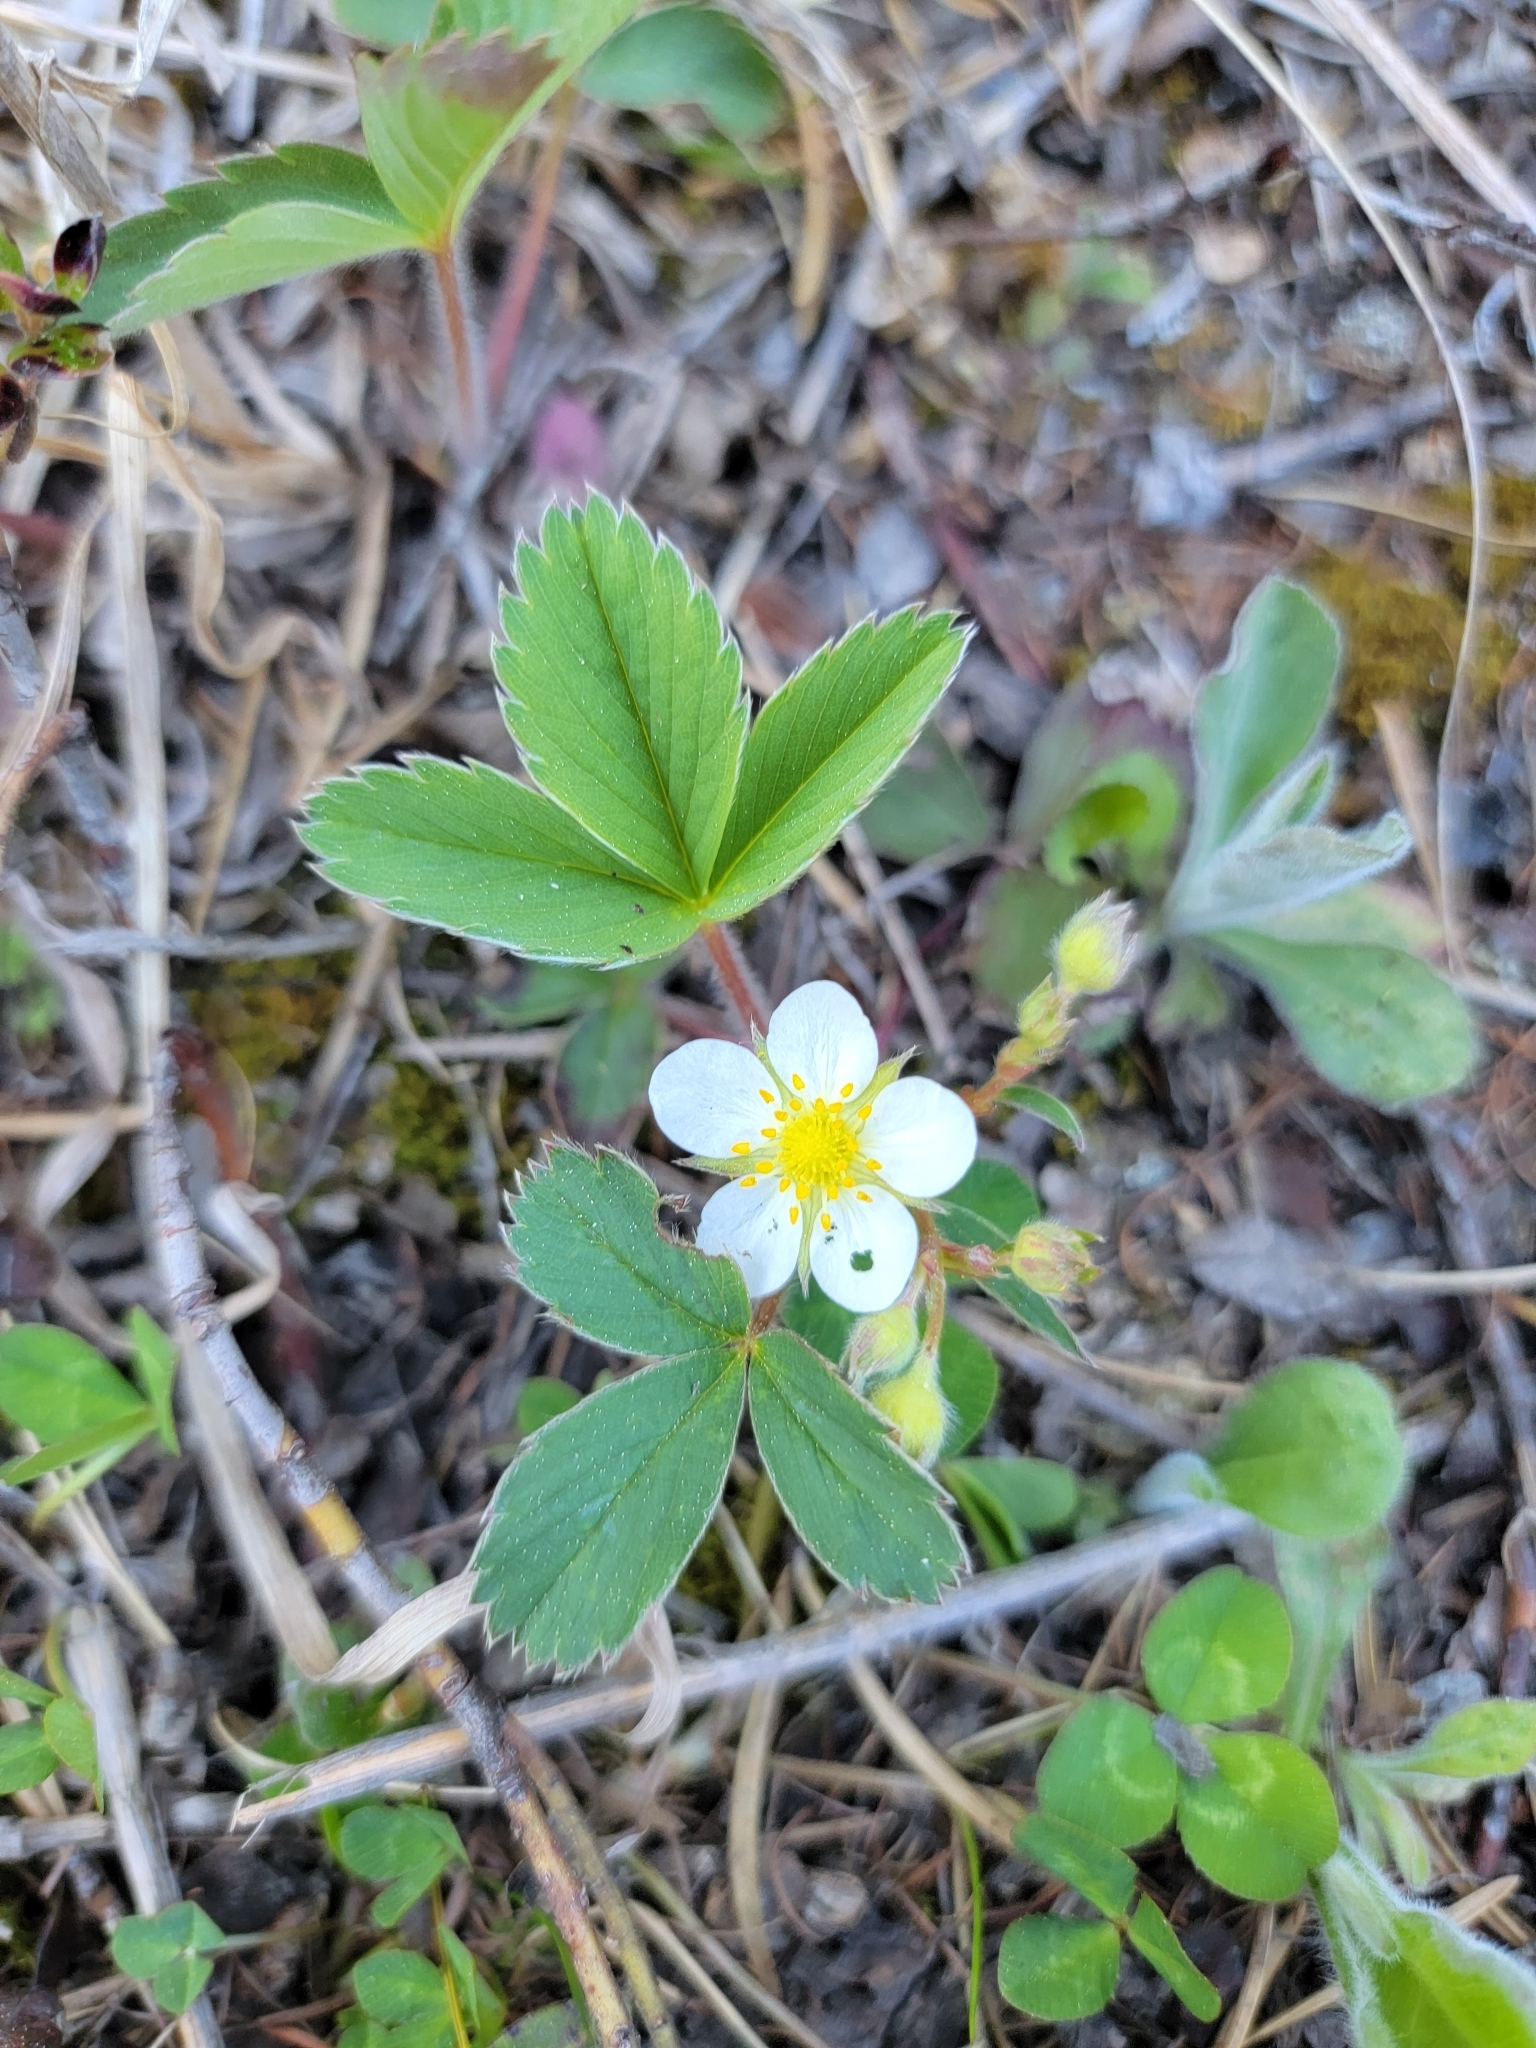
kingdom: Plantae
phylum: Tracheophyta
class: Magnoliopsida
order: Rosales
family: Rosaceae
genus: Fragaria
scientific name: Fragaria virginiana
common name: Thickleaved wild strawberry
